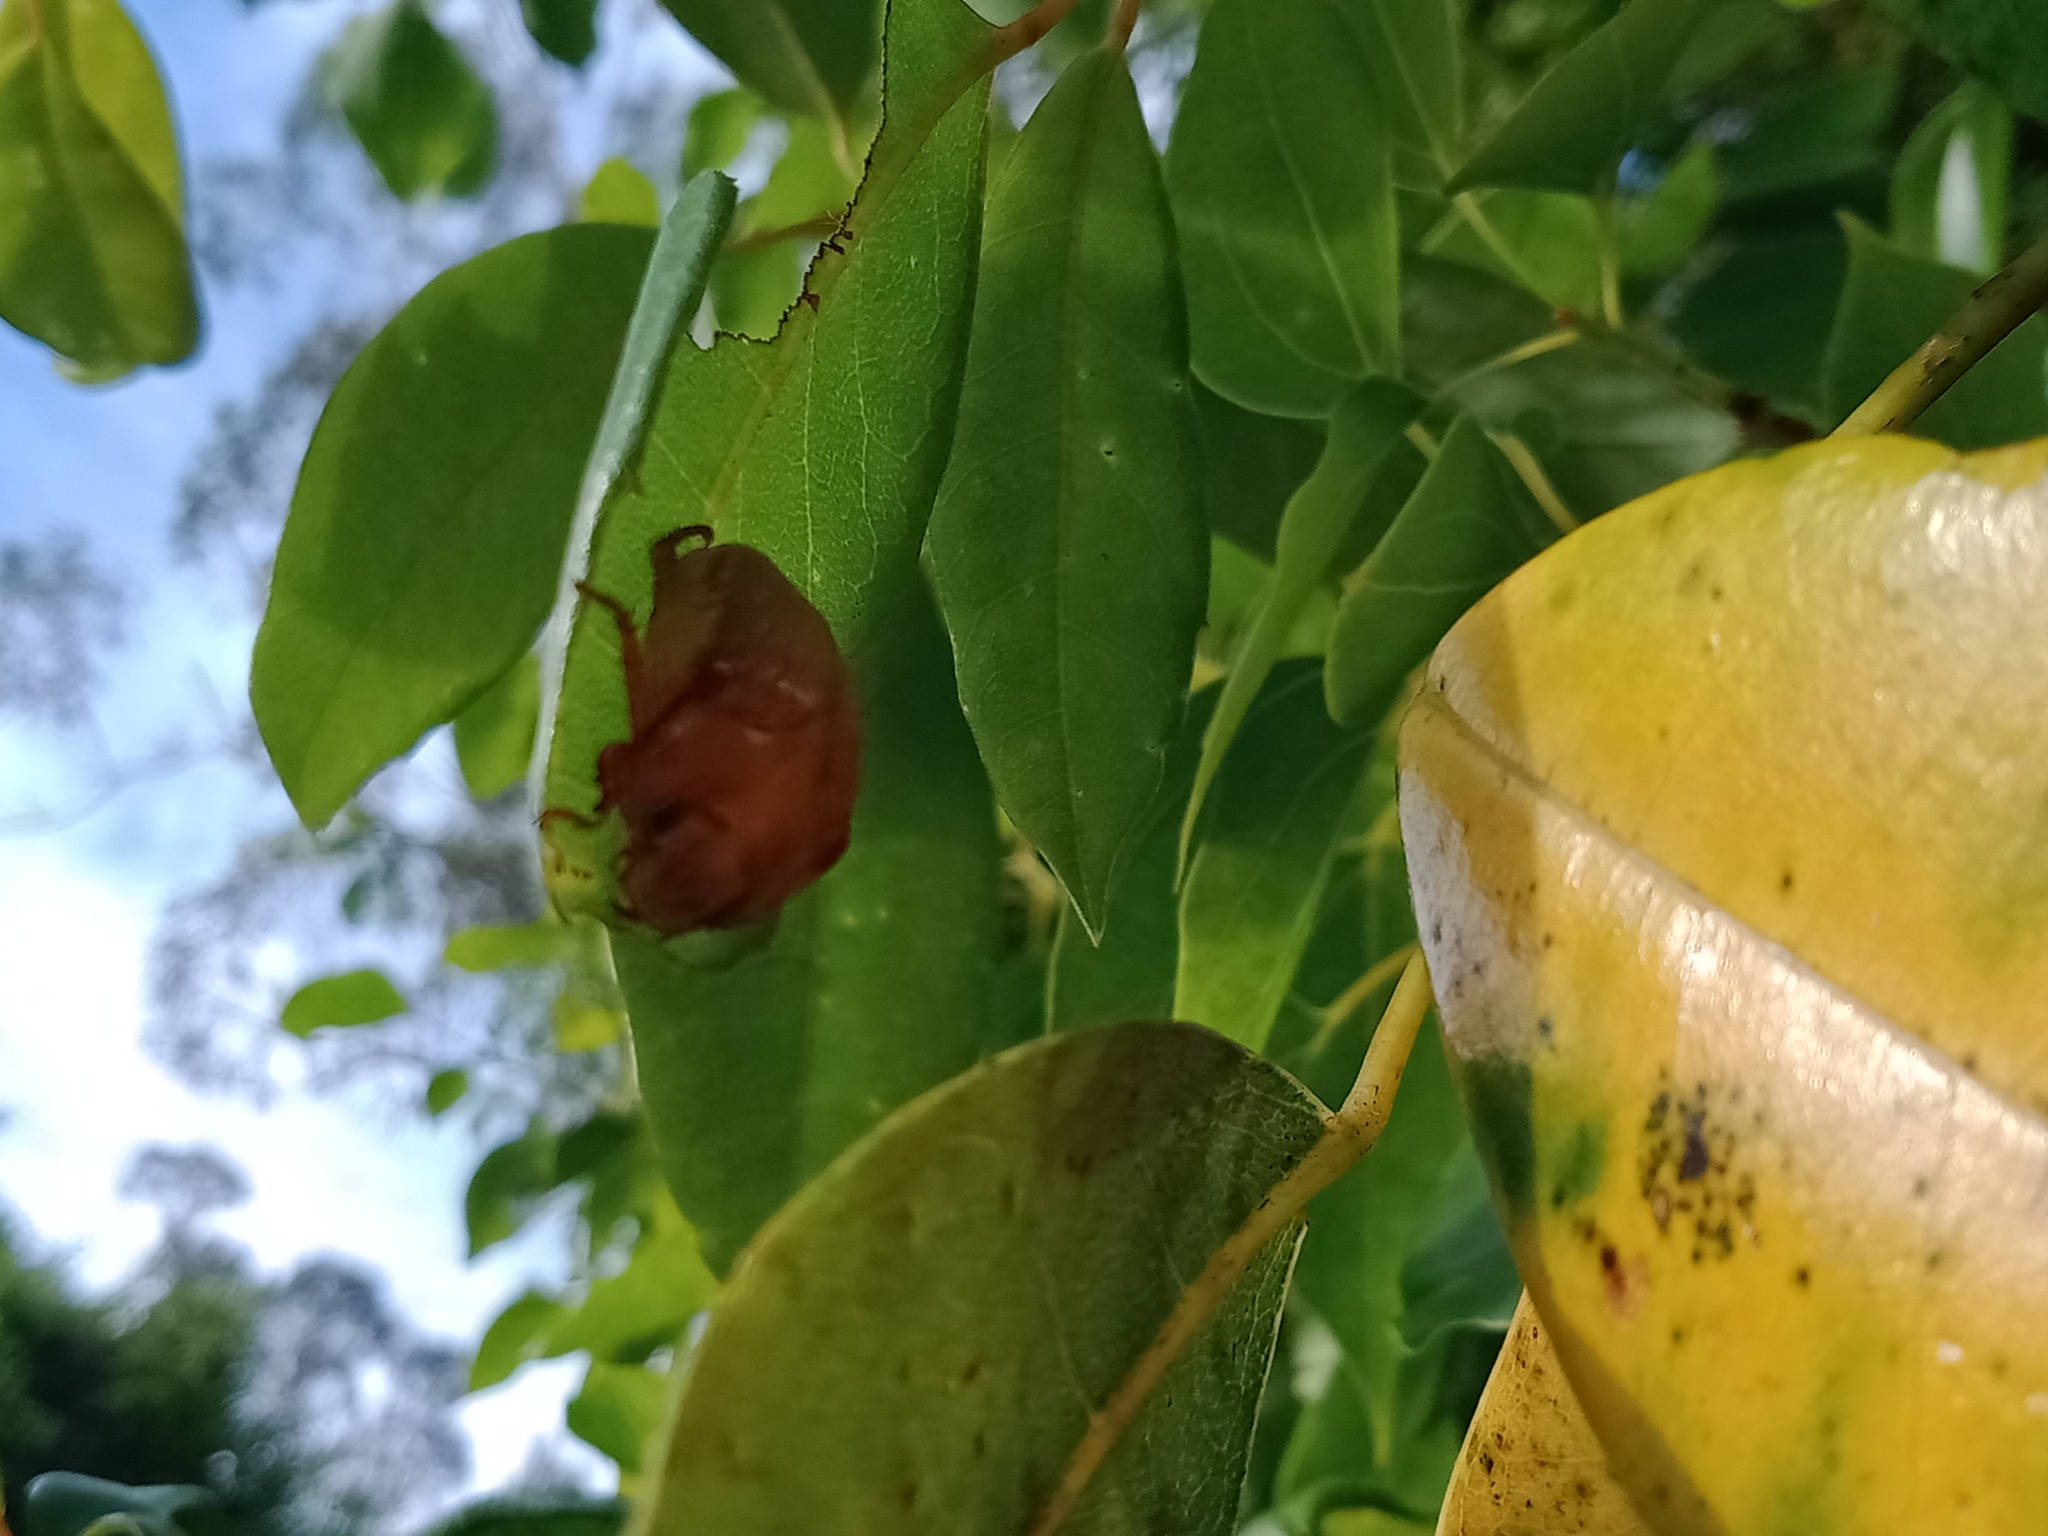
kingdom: Animalia
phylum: Arthropoda
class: Insecta
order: Coleoptera
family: Scarabaeidae
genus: Anoplognathus
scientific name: Anoplognathus concolor
